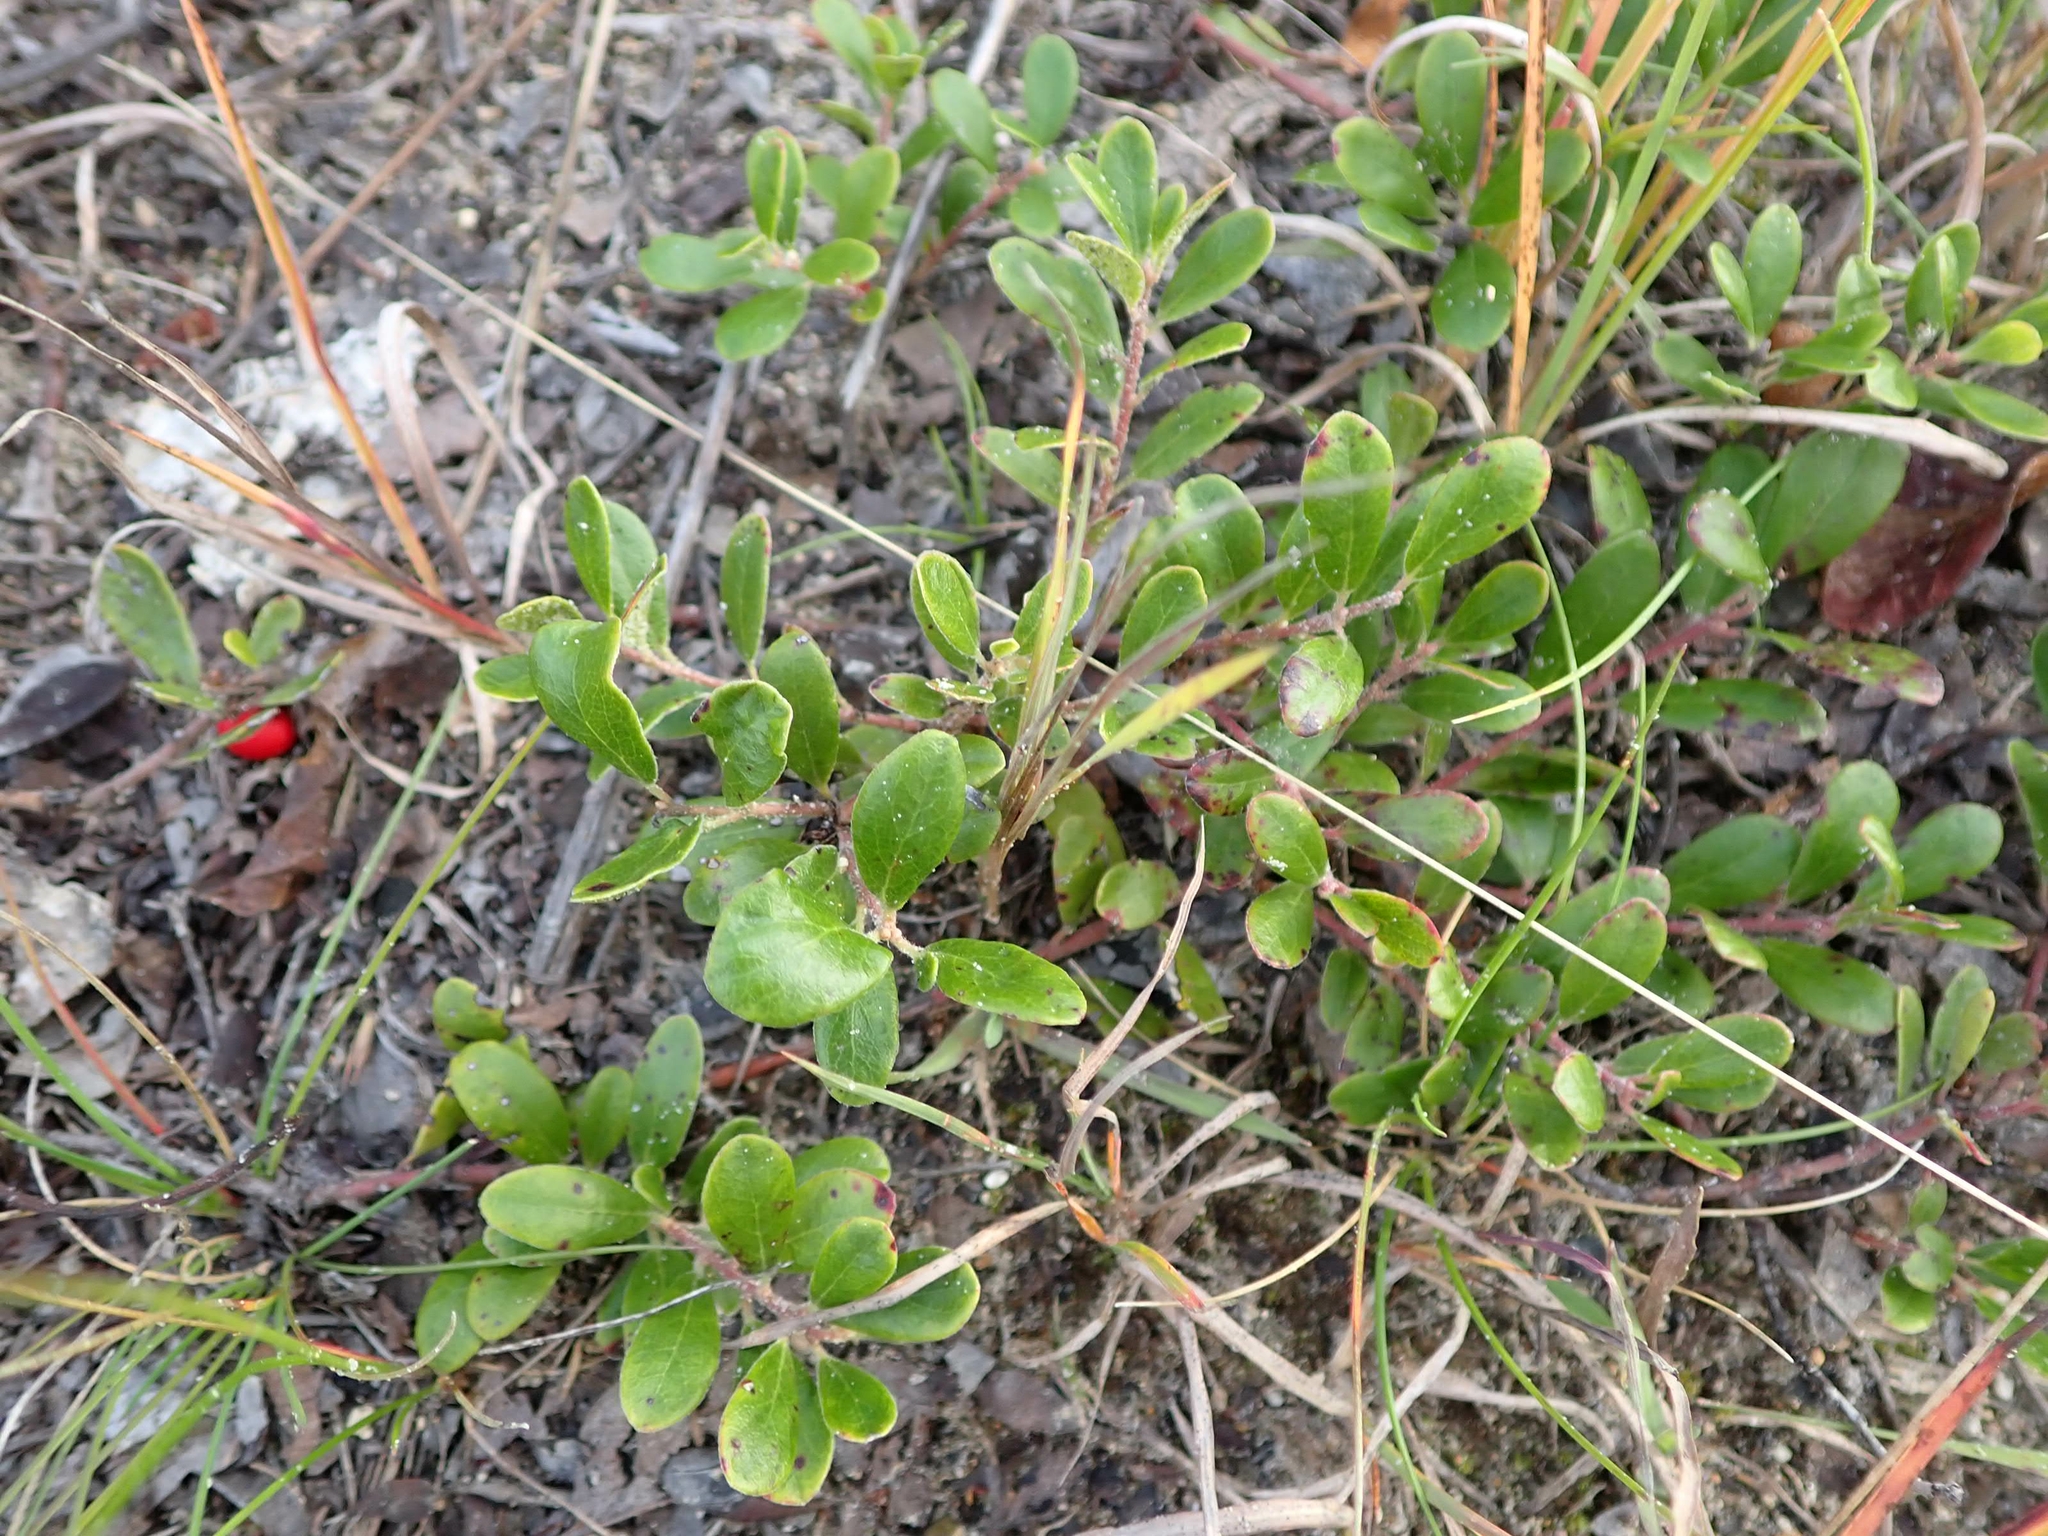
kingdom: Plantae
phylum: Tracheophyta
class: Magnoliopsida
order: Ericales
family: Ericaceae
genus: Arctostaphylos
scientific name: Arctostaphylos uva-ursi
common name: Bearberry
